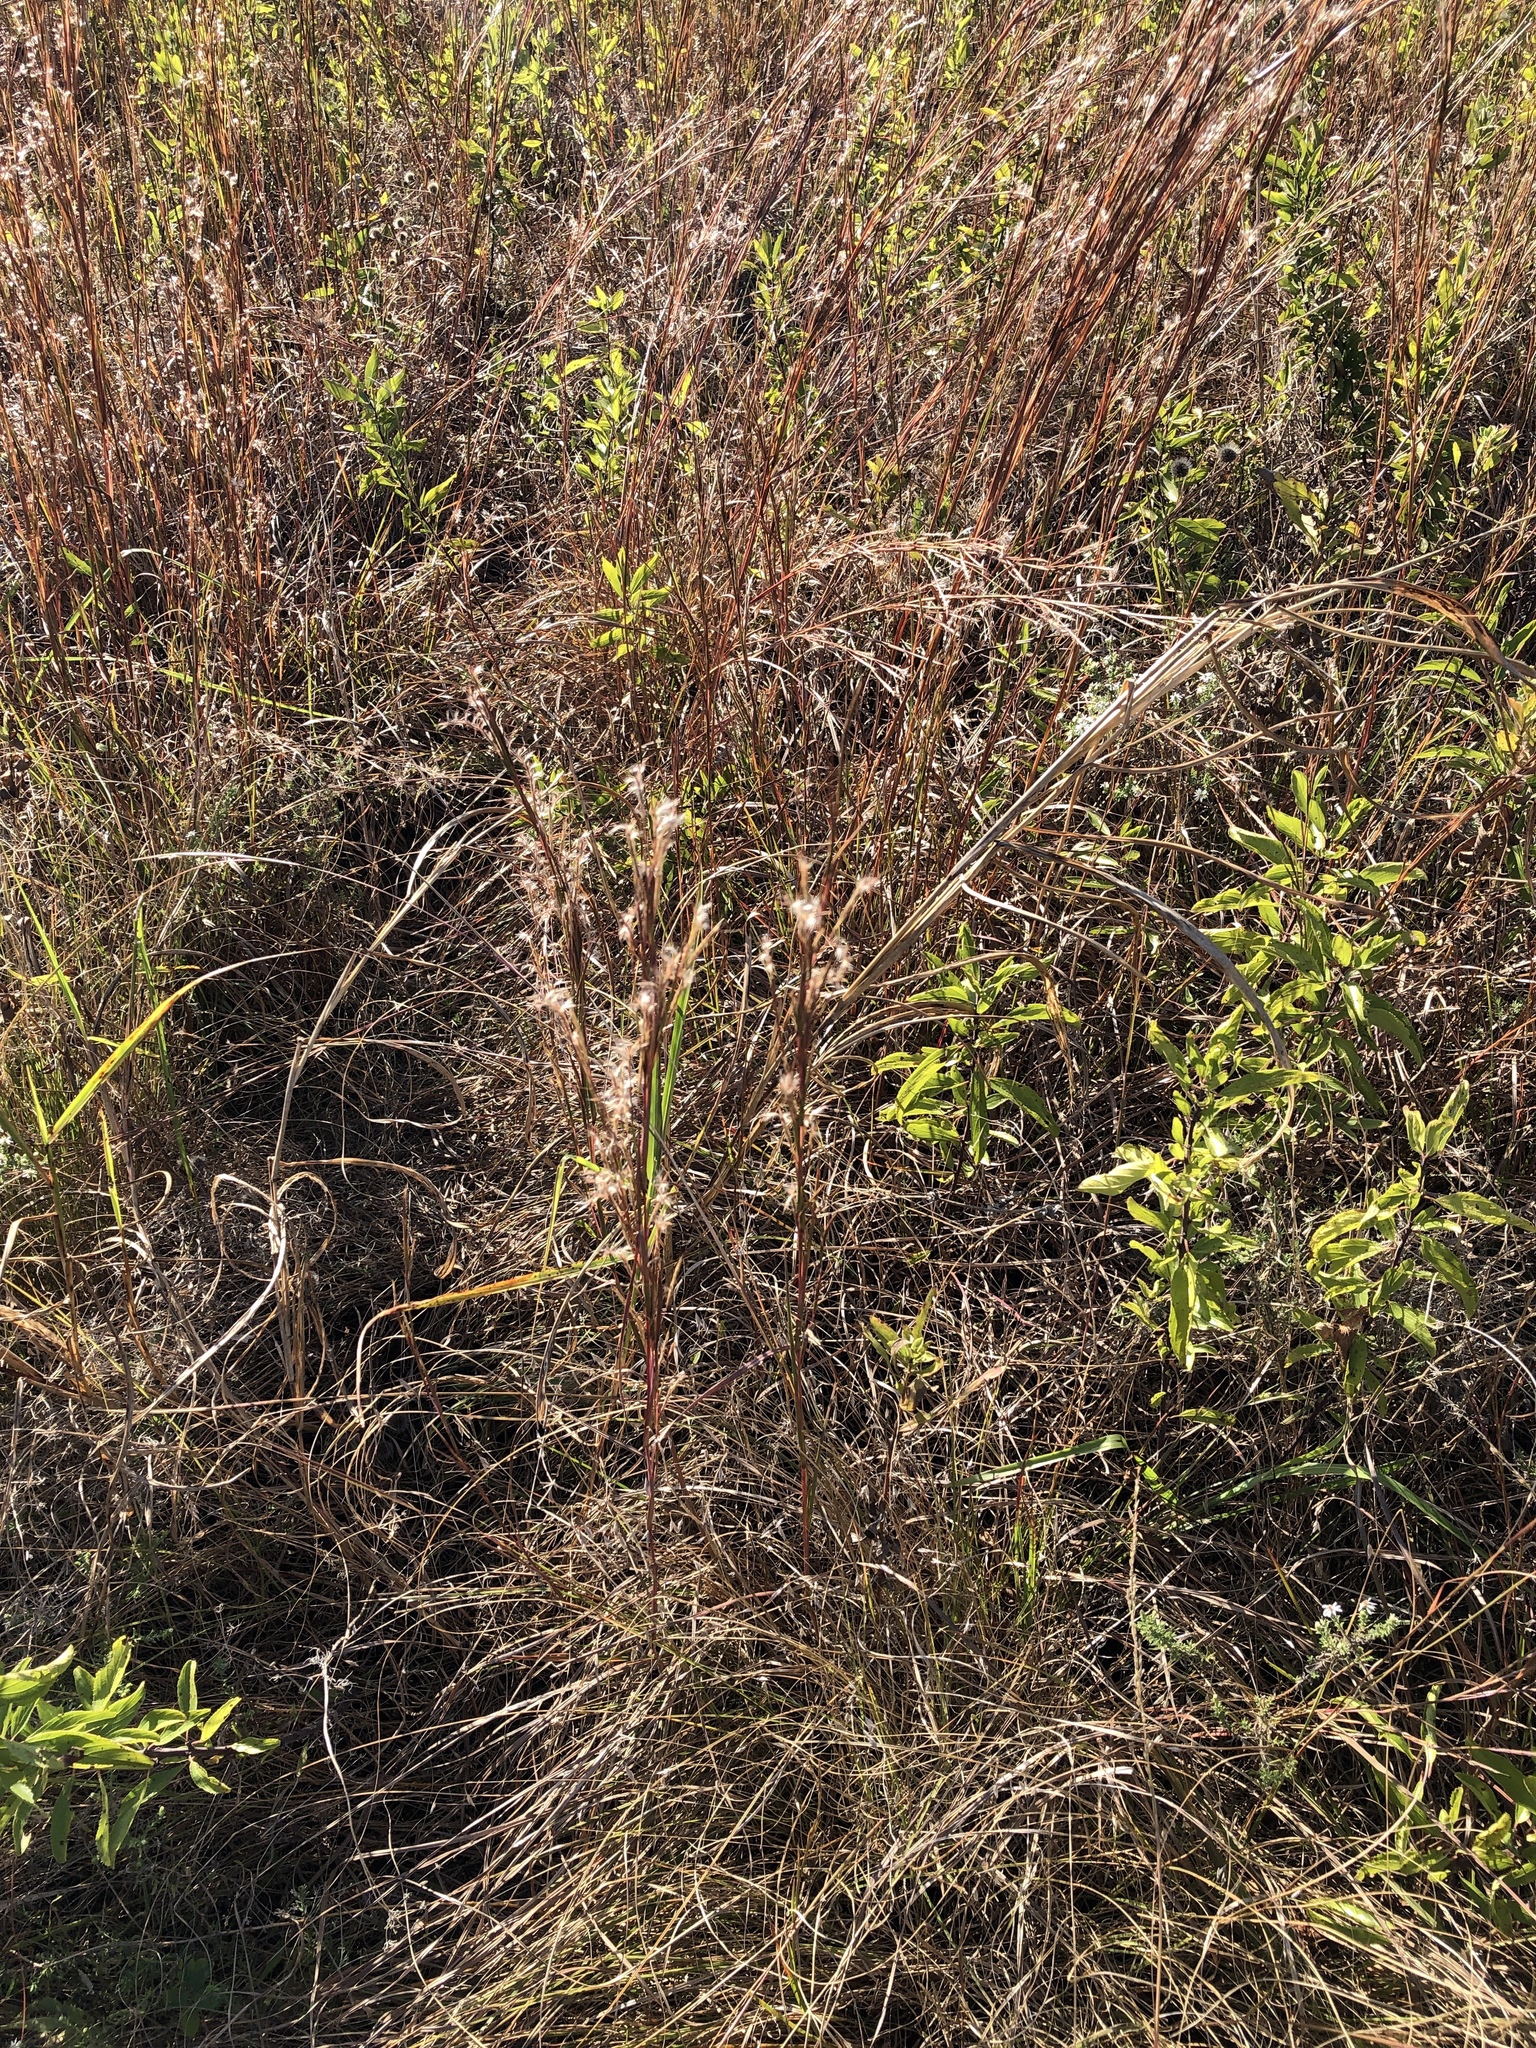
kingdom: Plantae
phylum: Tracheophyta
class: Liliopsida
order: Poales
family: Poaceae
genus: Schizachyrium
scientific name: Schizachyrium scoparium
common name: Little bluestem
